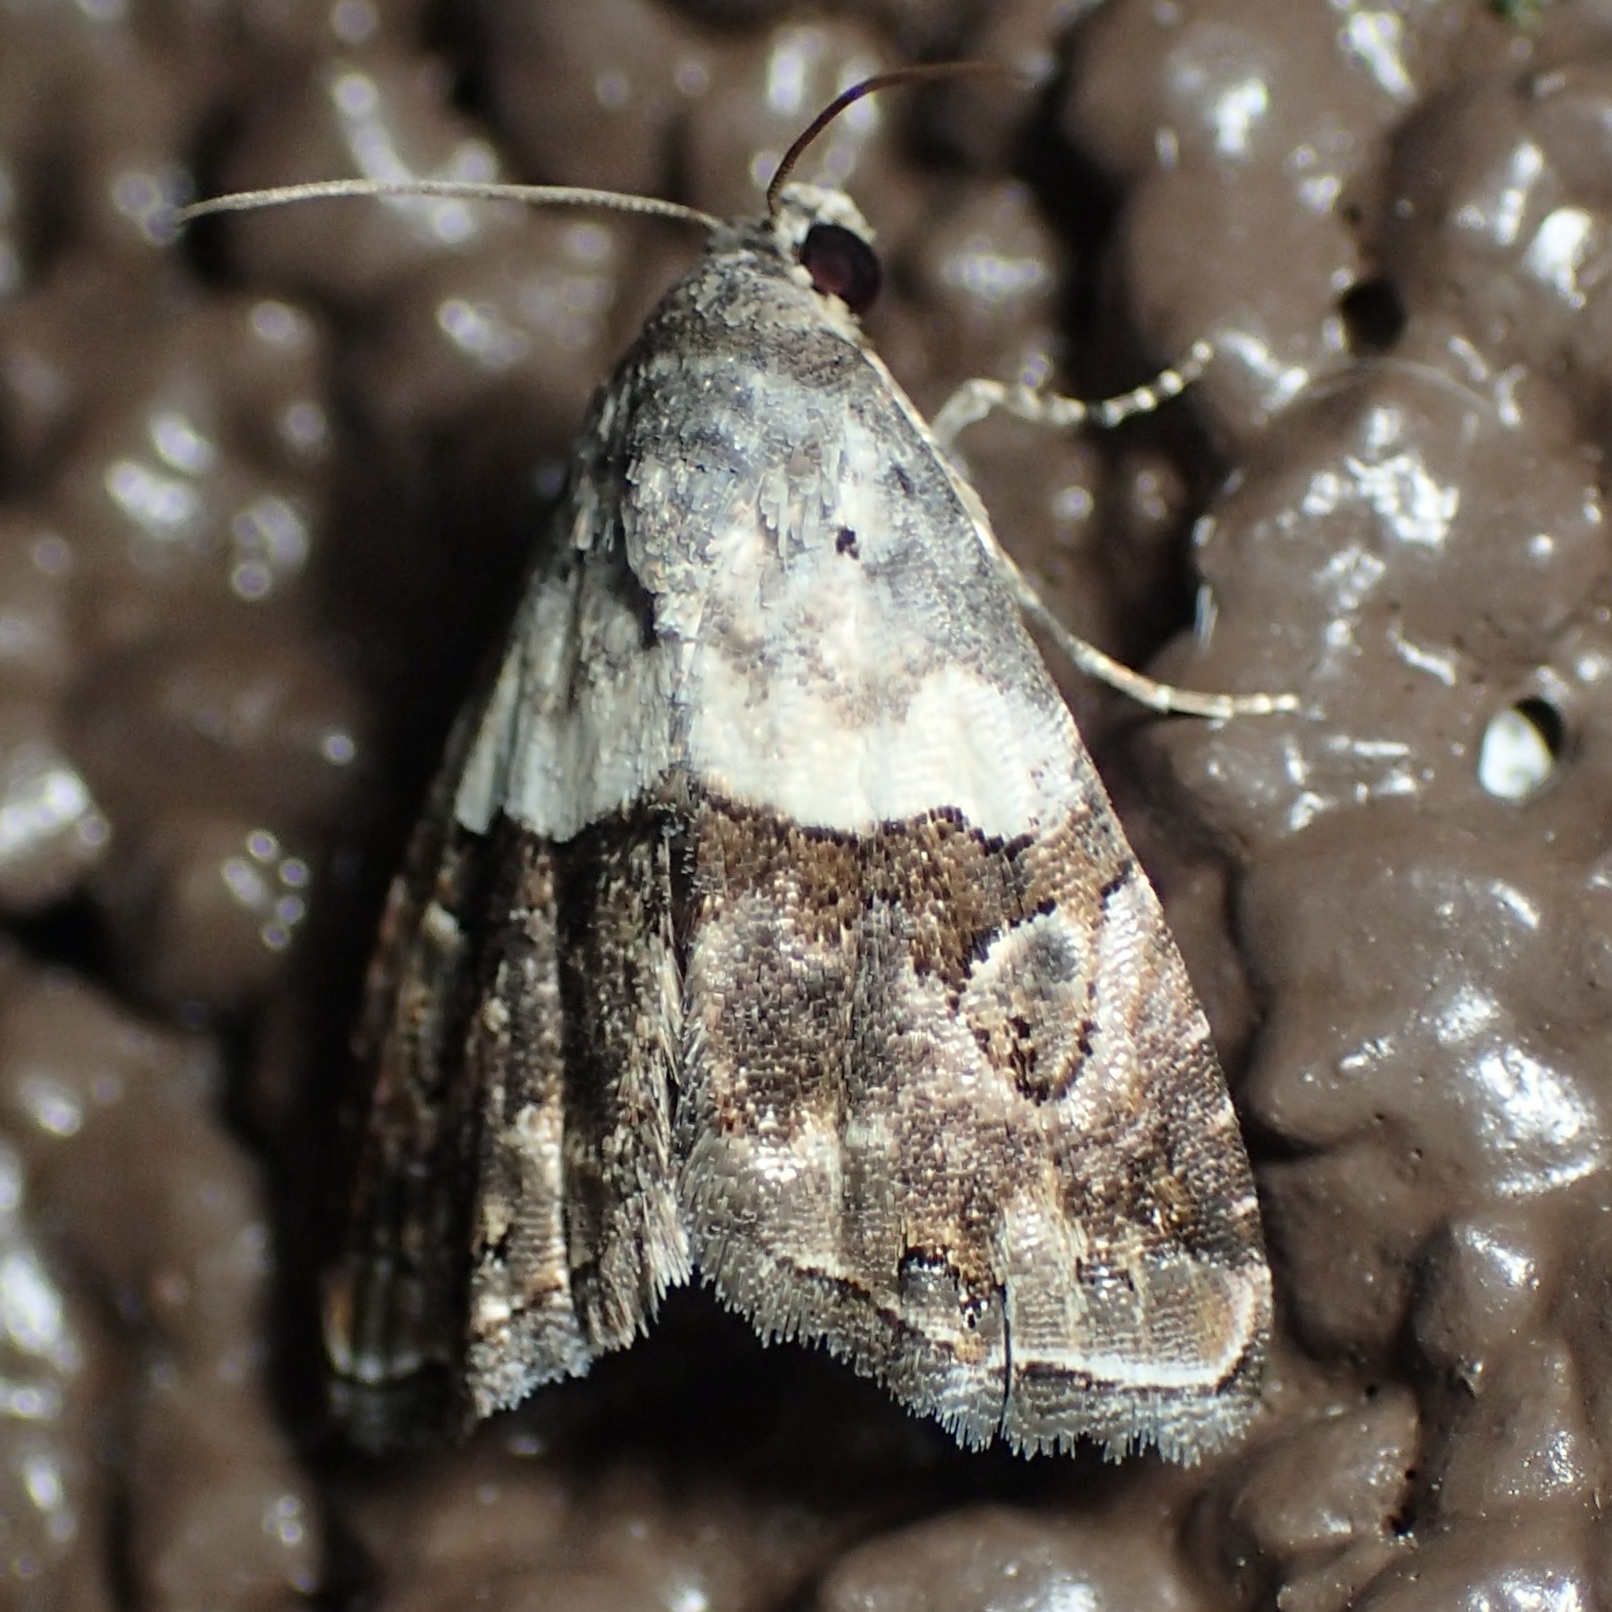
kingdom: Animalia
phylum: Arthropoda
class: Insecta
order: Lepidoptera
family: Noctuidae
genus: Tripudia
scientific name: Tripudia dimidata
